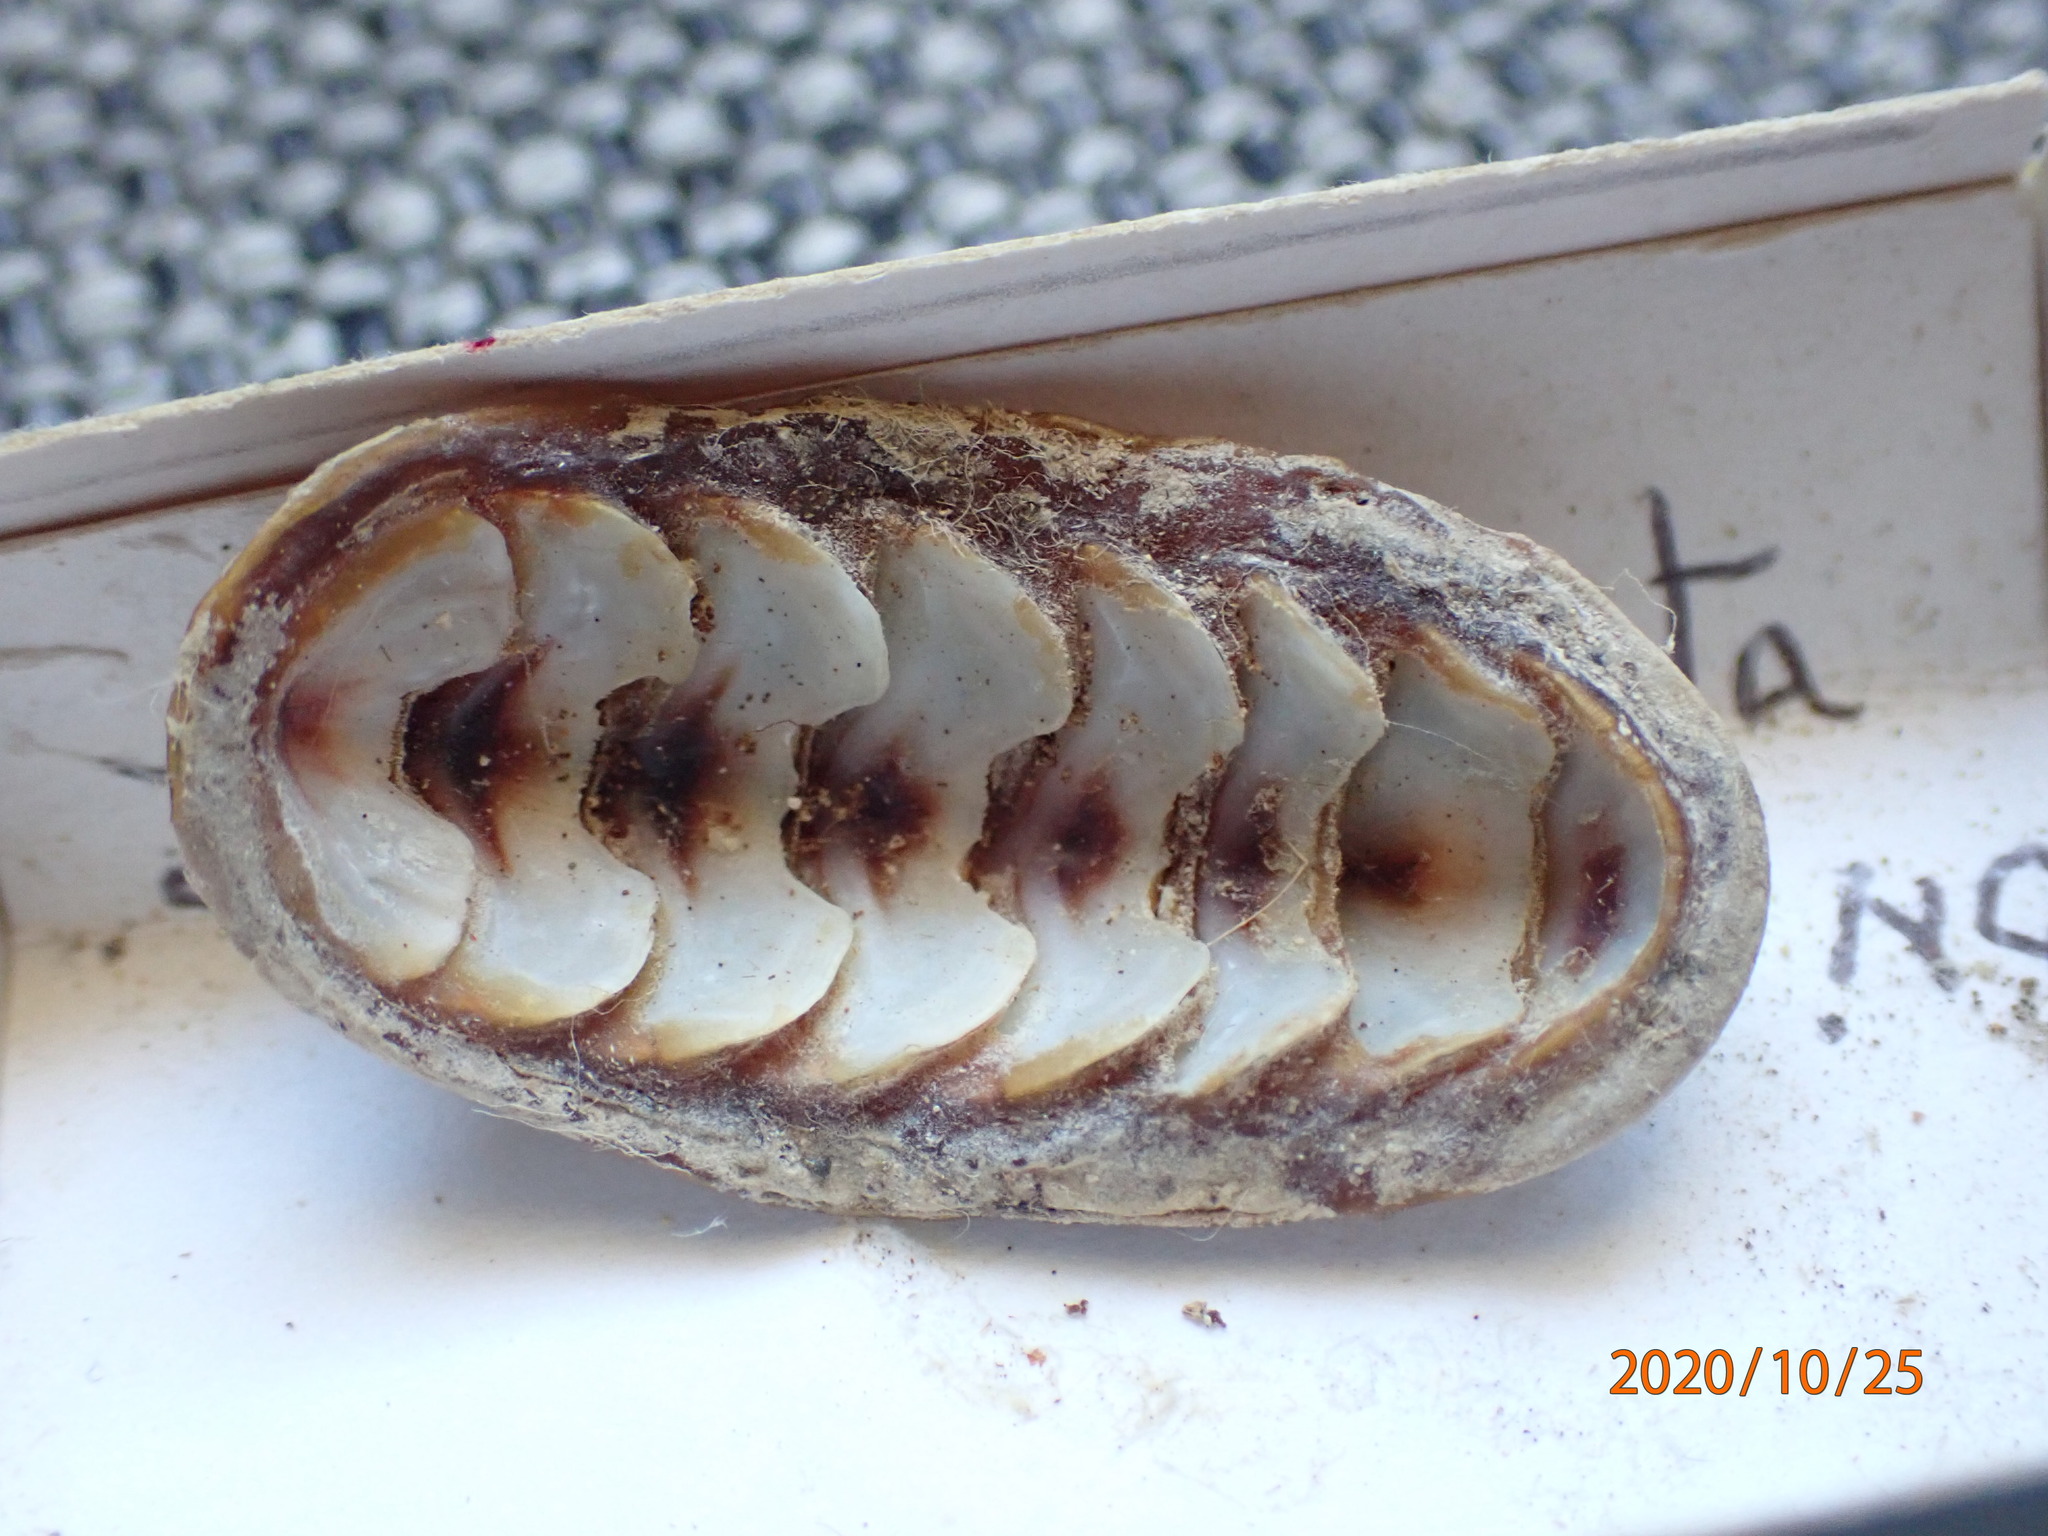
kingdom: Animalia
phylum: Mollusca
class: Polyplacophora
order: Chitonida
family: Chitonidae
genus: Onithochiton
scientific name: Onithochiton lyellii
